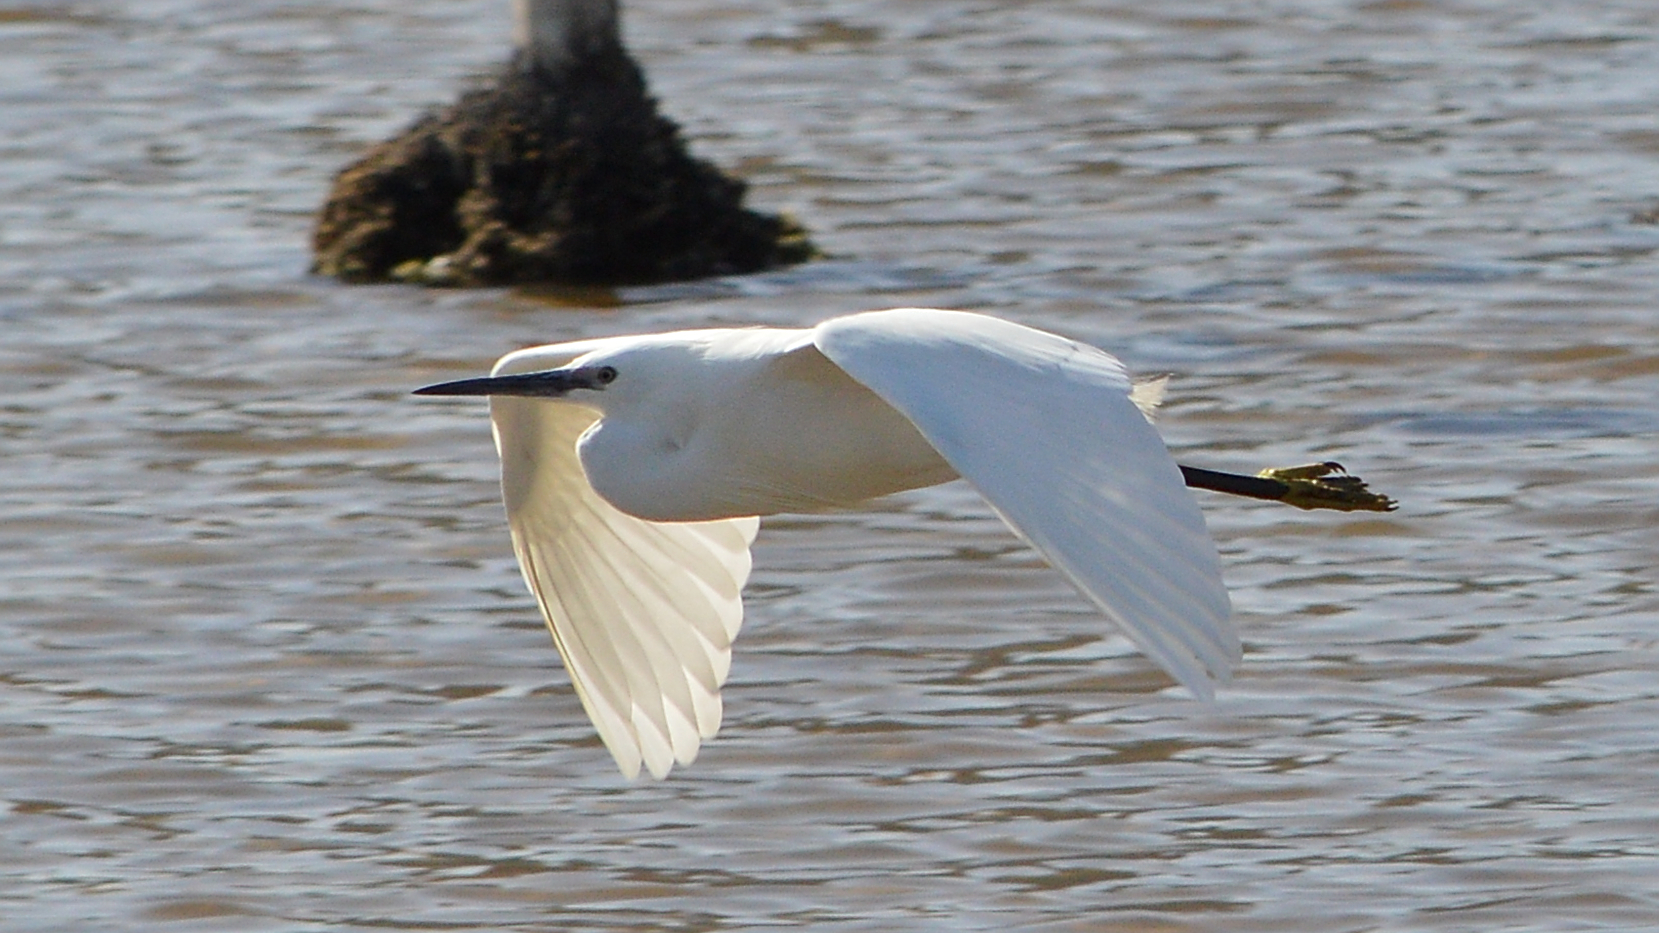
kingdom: Animalia
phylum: Chordata
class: Aves
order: Pelecaniformes
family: Ardeidae
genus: Egretta
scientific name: Egretta garzetta
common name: Little egret
